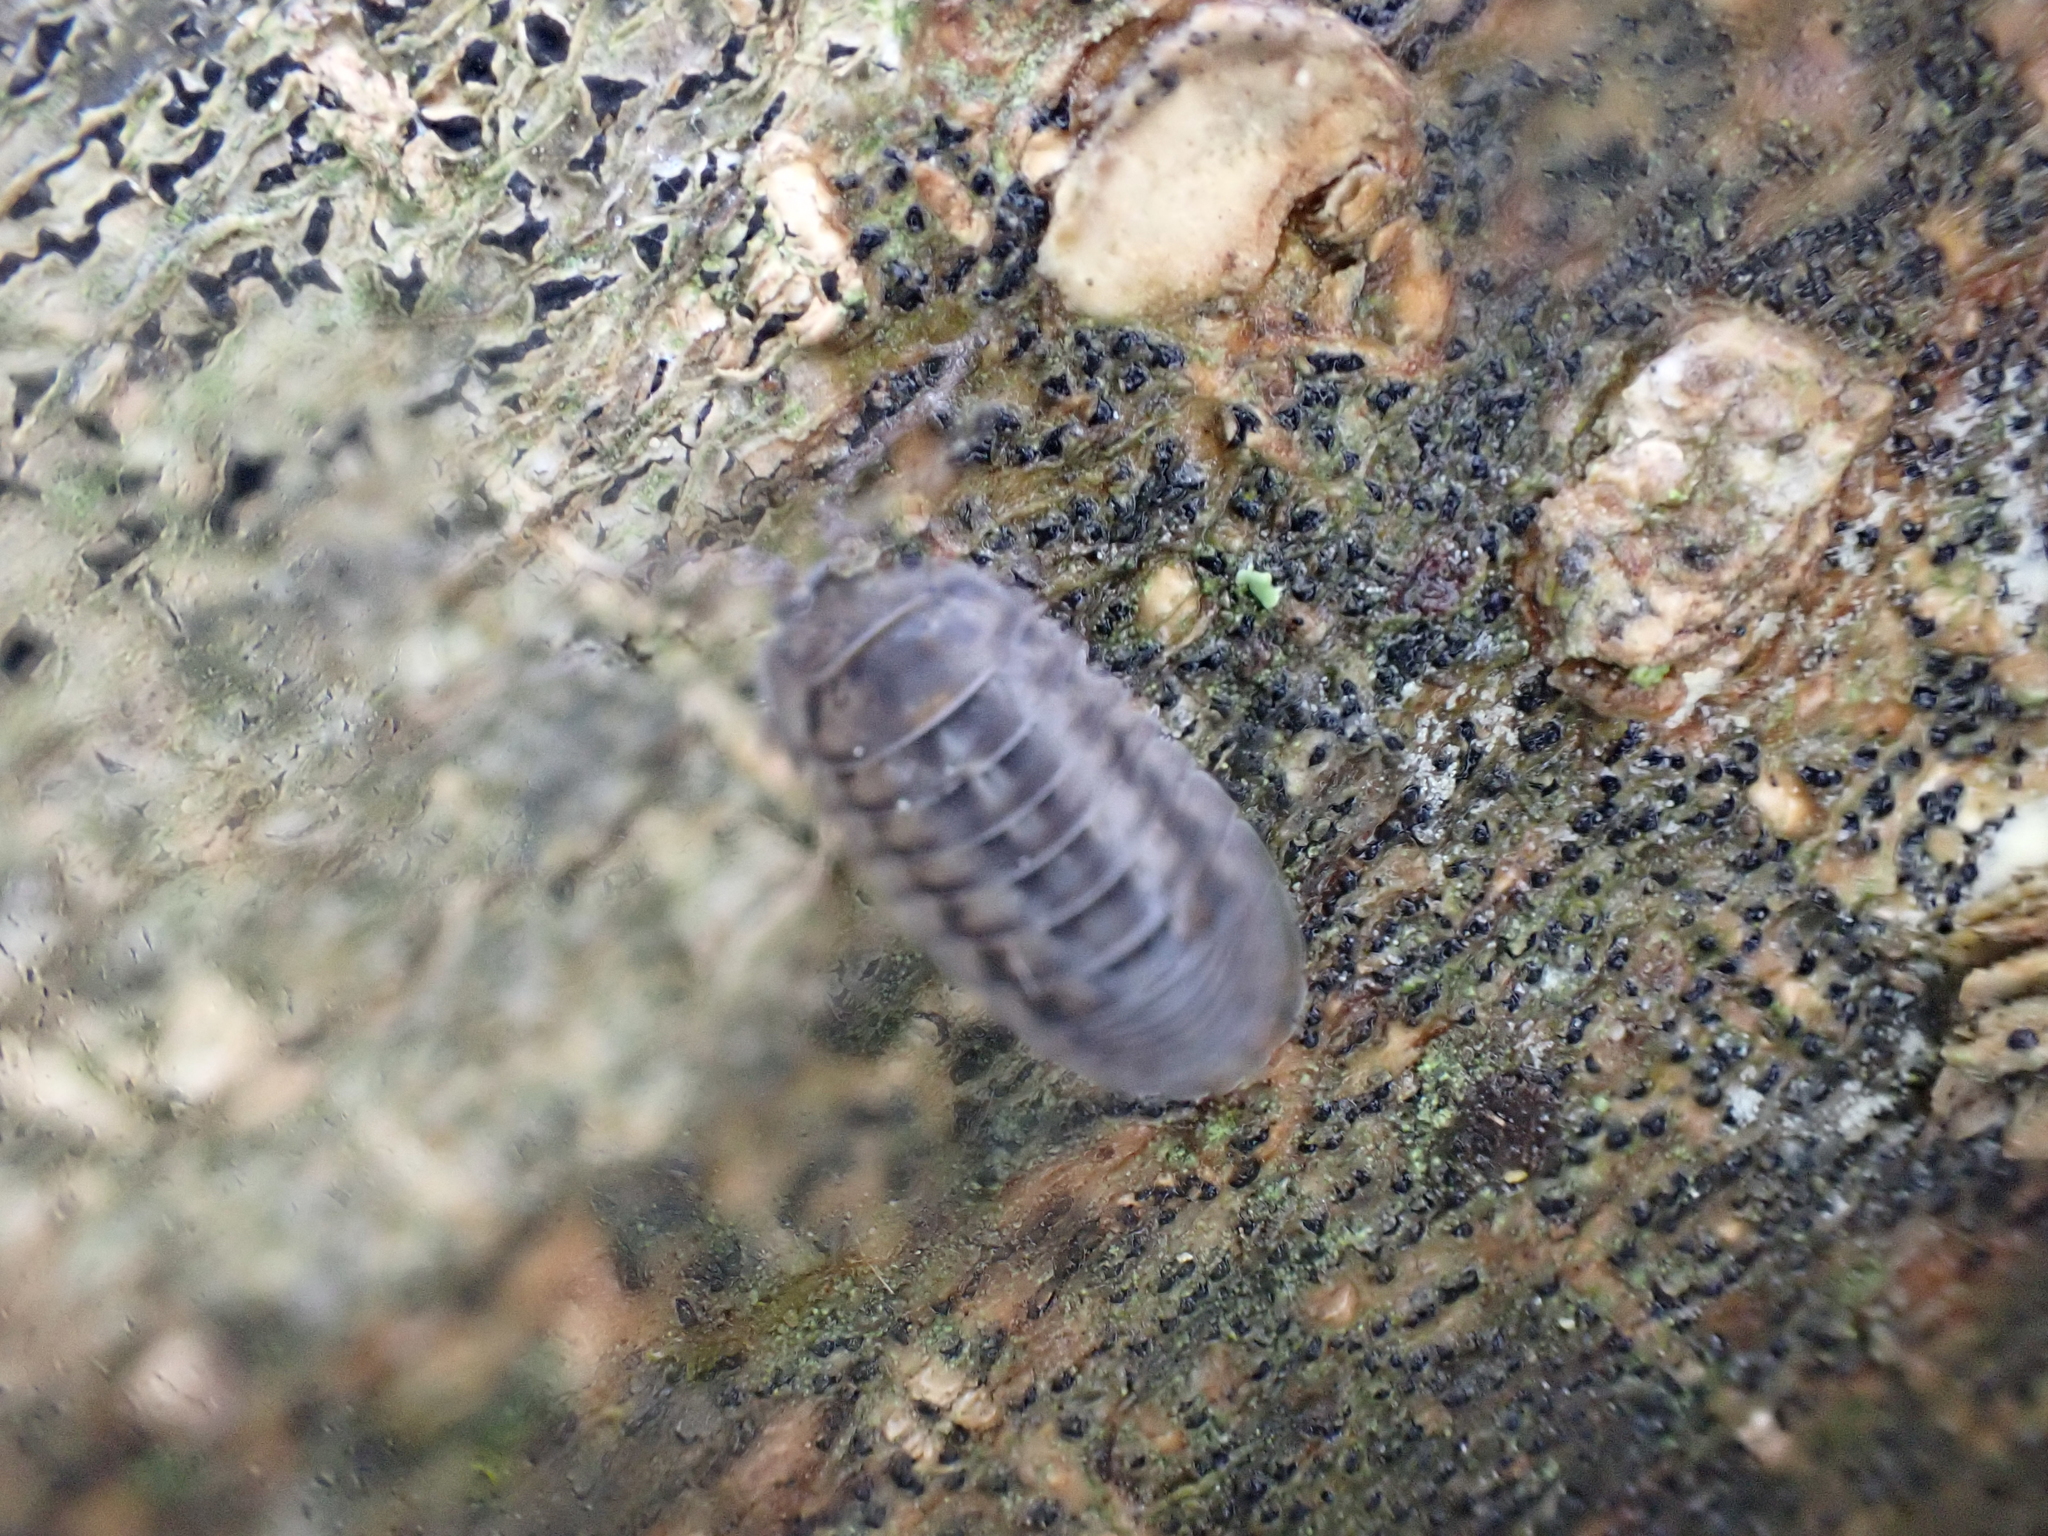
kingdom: Animalia
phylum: Arthropoda
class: Malacostraca
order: Isopoda
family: Armadillidiidae
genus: Armadillidium
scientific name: Armadillidium nasatum
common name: Isopod
